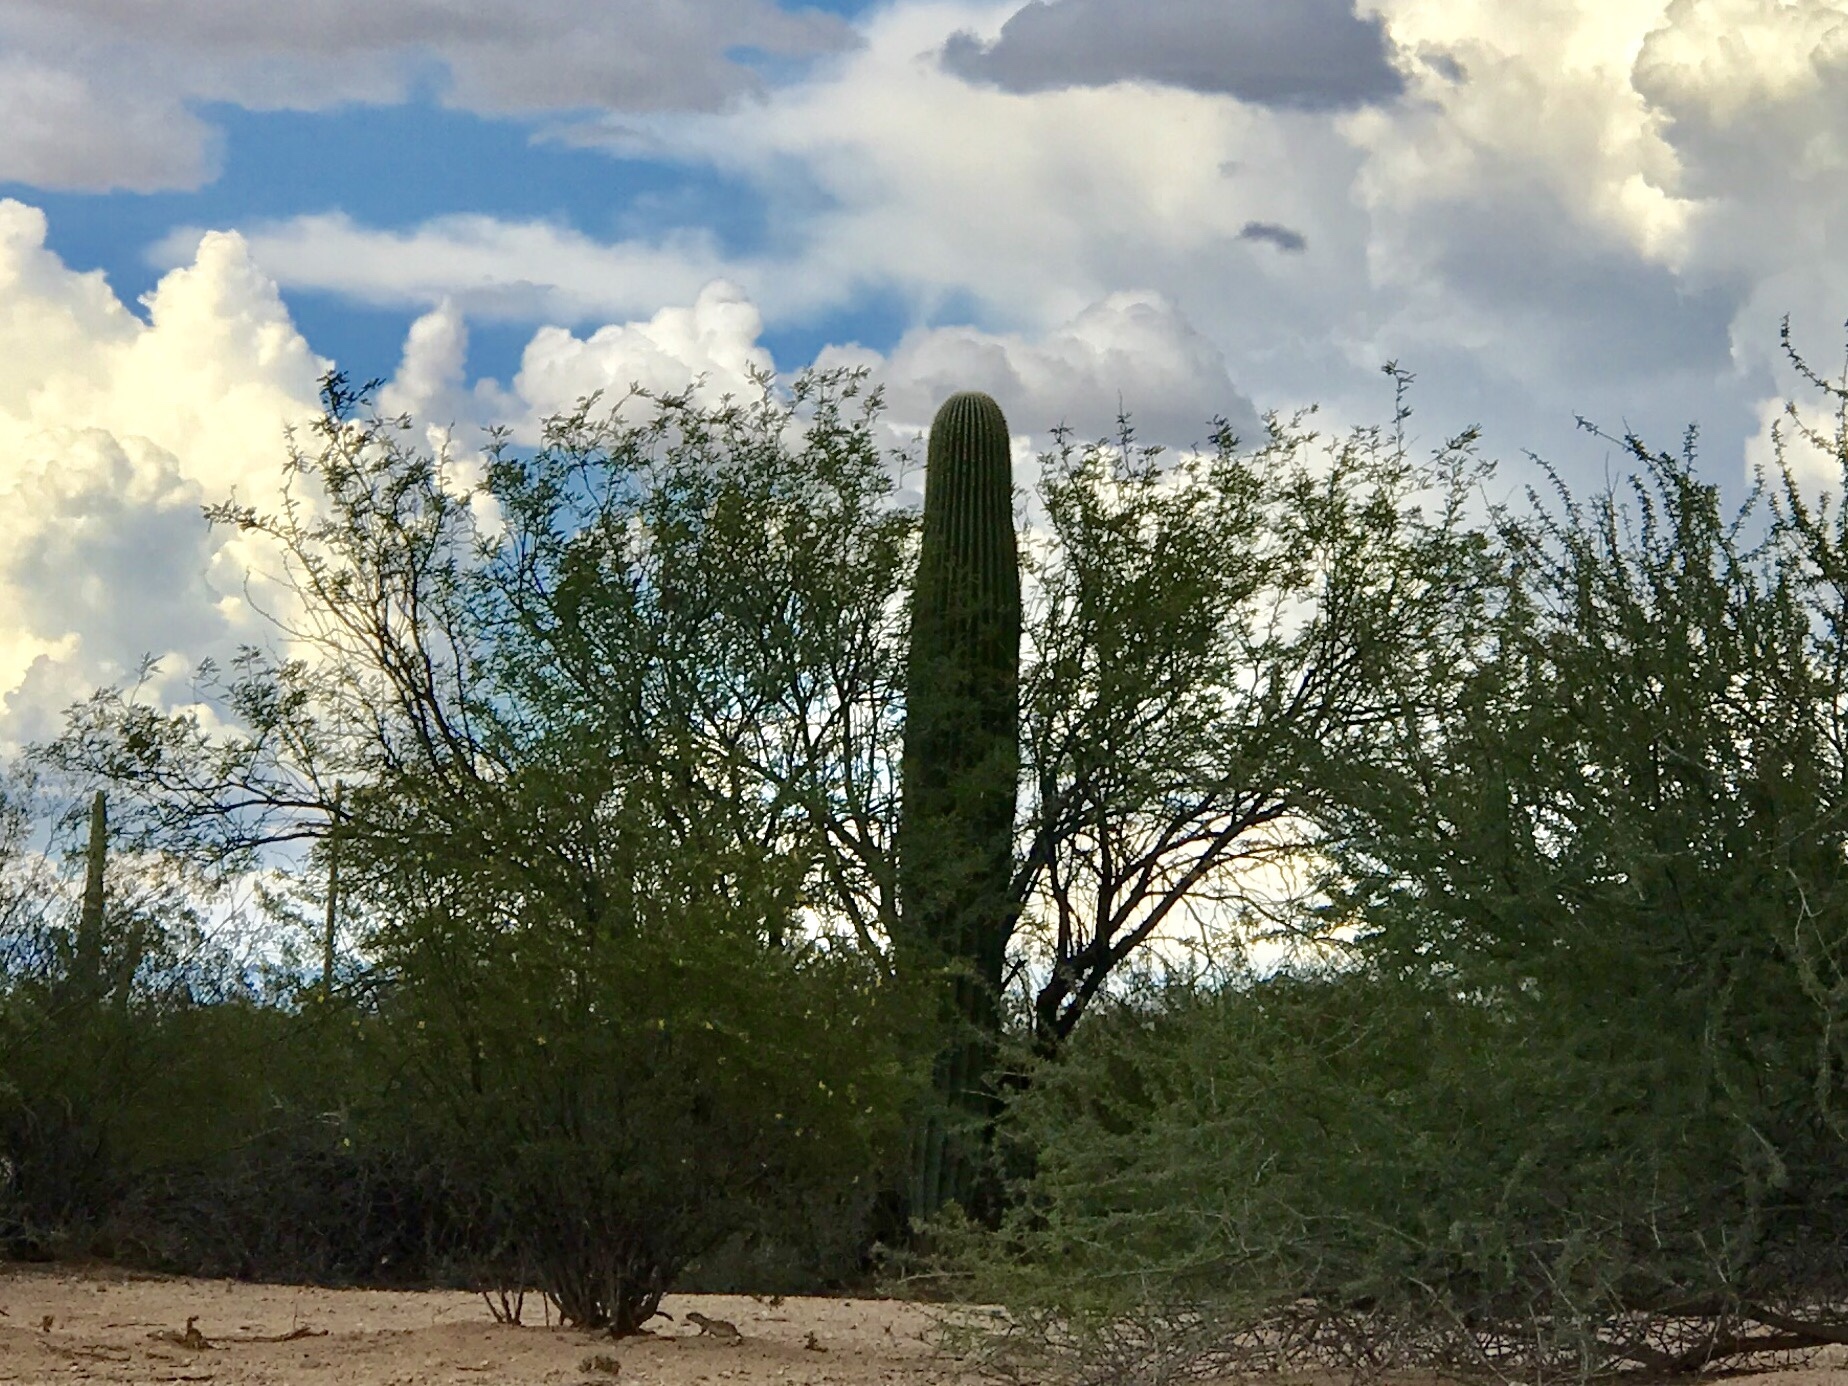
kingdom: Plantae
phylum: Tracheophyta
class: Magnoliopsida
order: Caryophyllales
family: Cactaceae
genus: Carnegiea
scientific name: Carnegiea gigantea
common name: Saguaro
